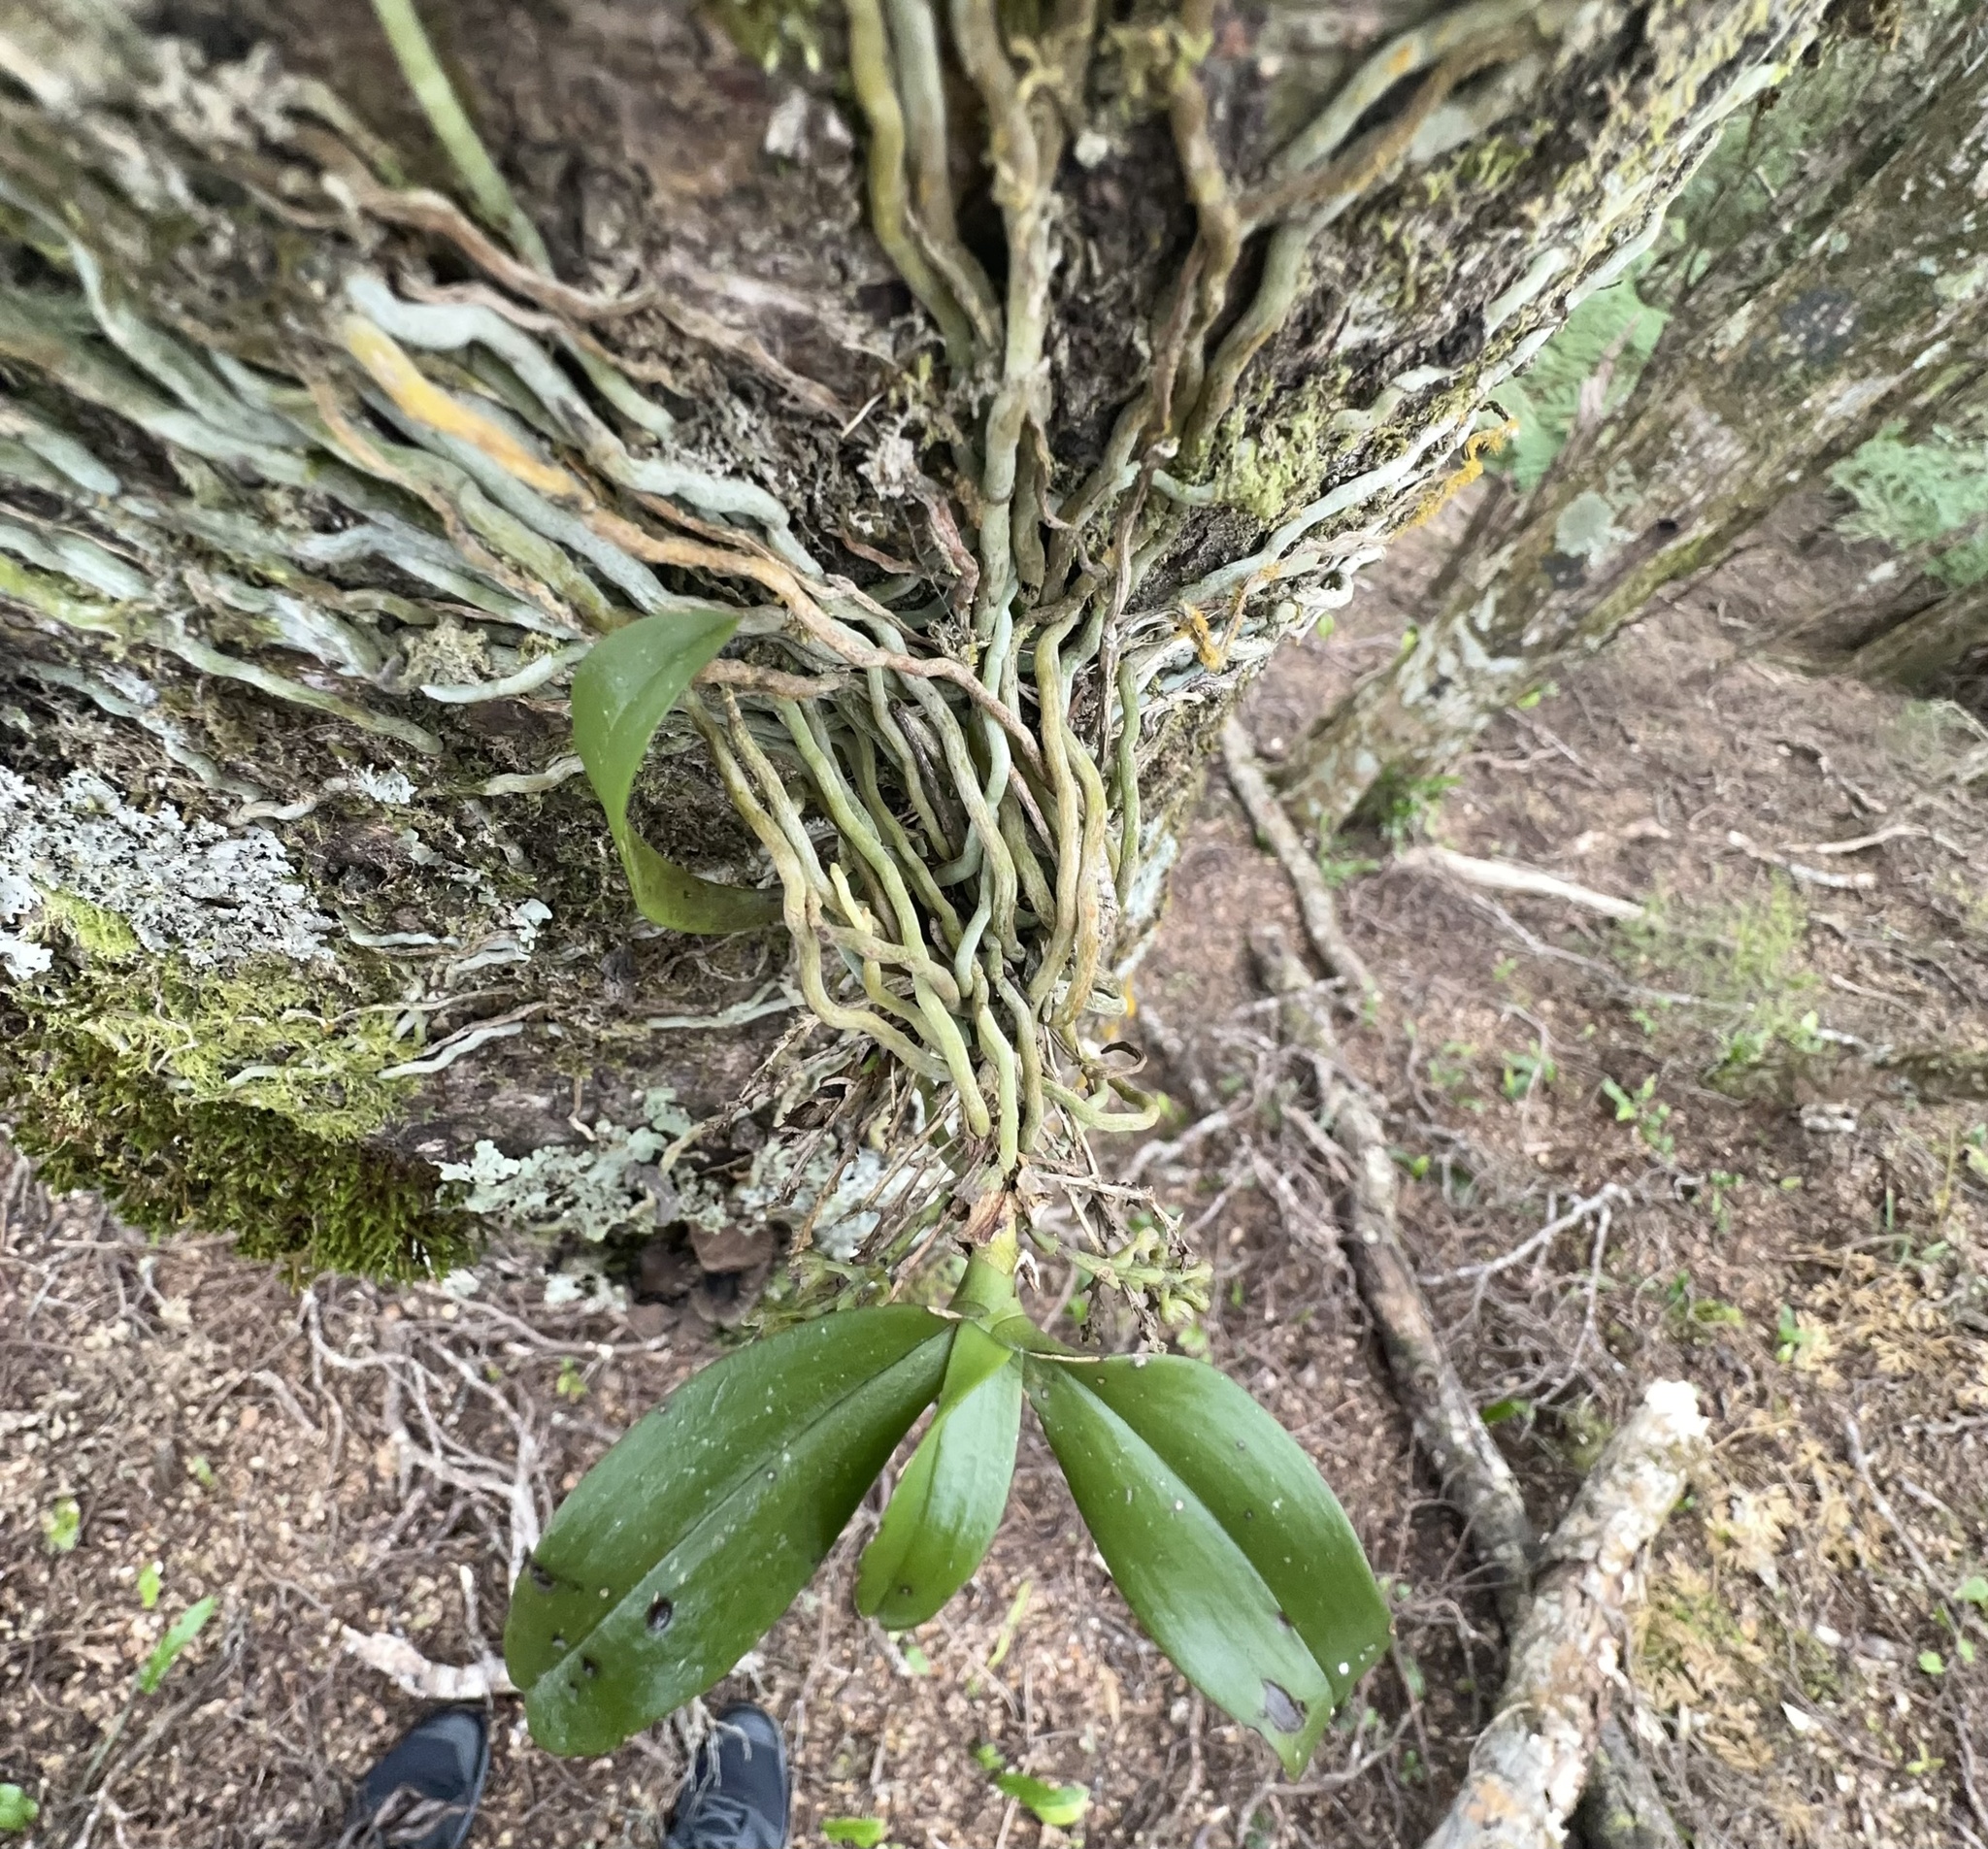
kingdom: Plantae
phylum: Tracheophyta
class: Liliopsida
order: Asparagales
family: Orchidaceae
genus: Drymoanthus
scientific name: Drymoanthus adversus
